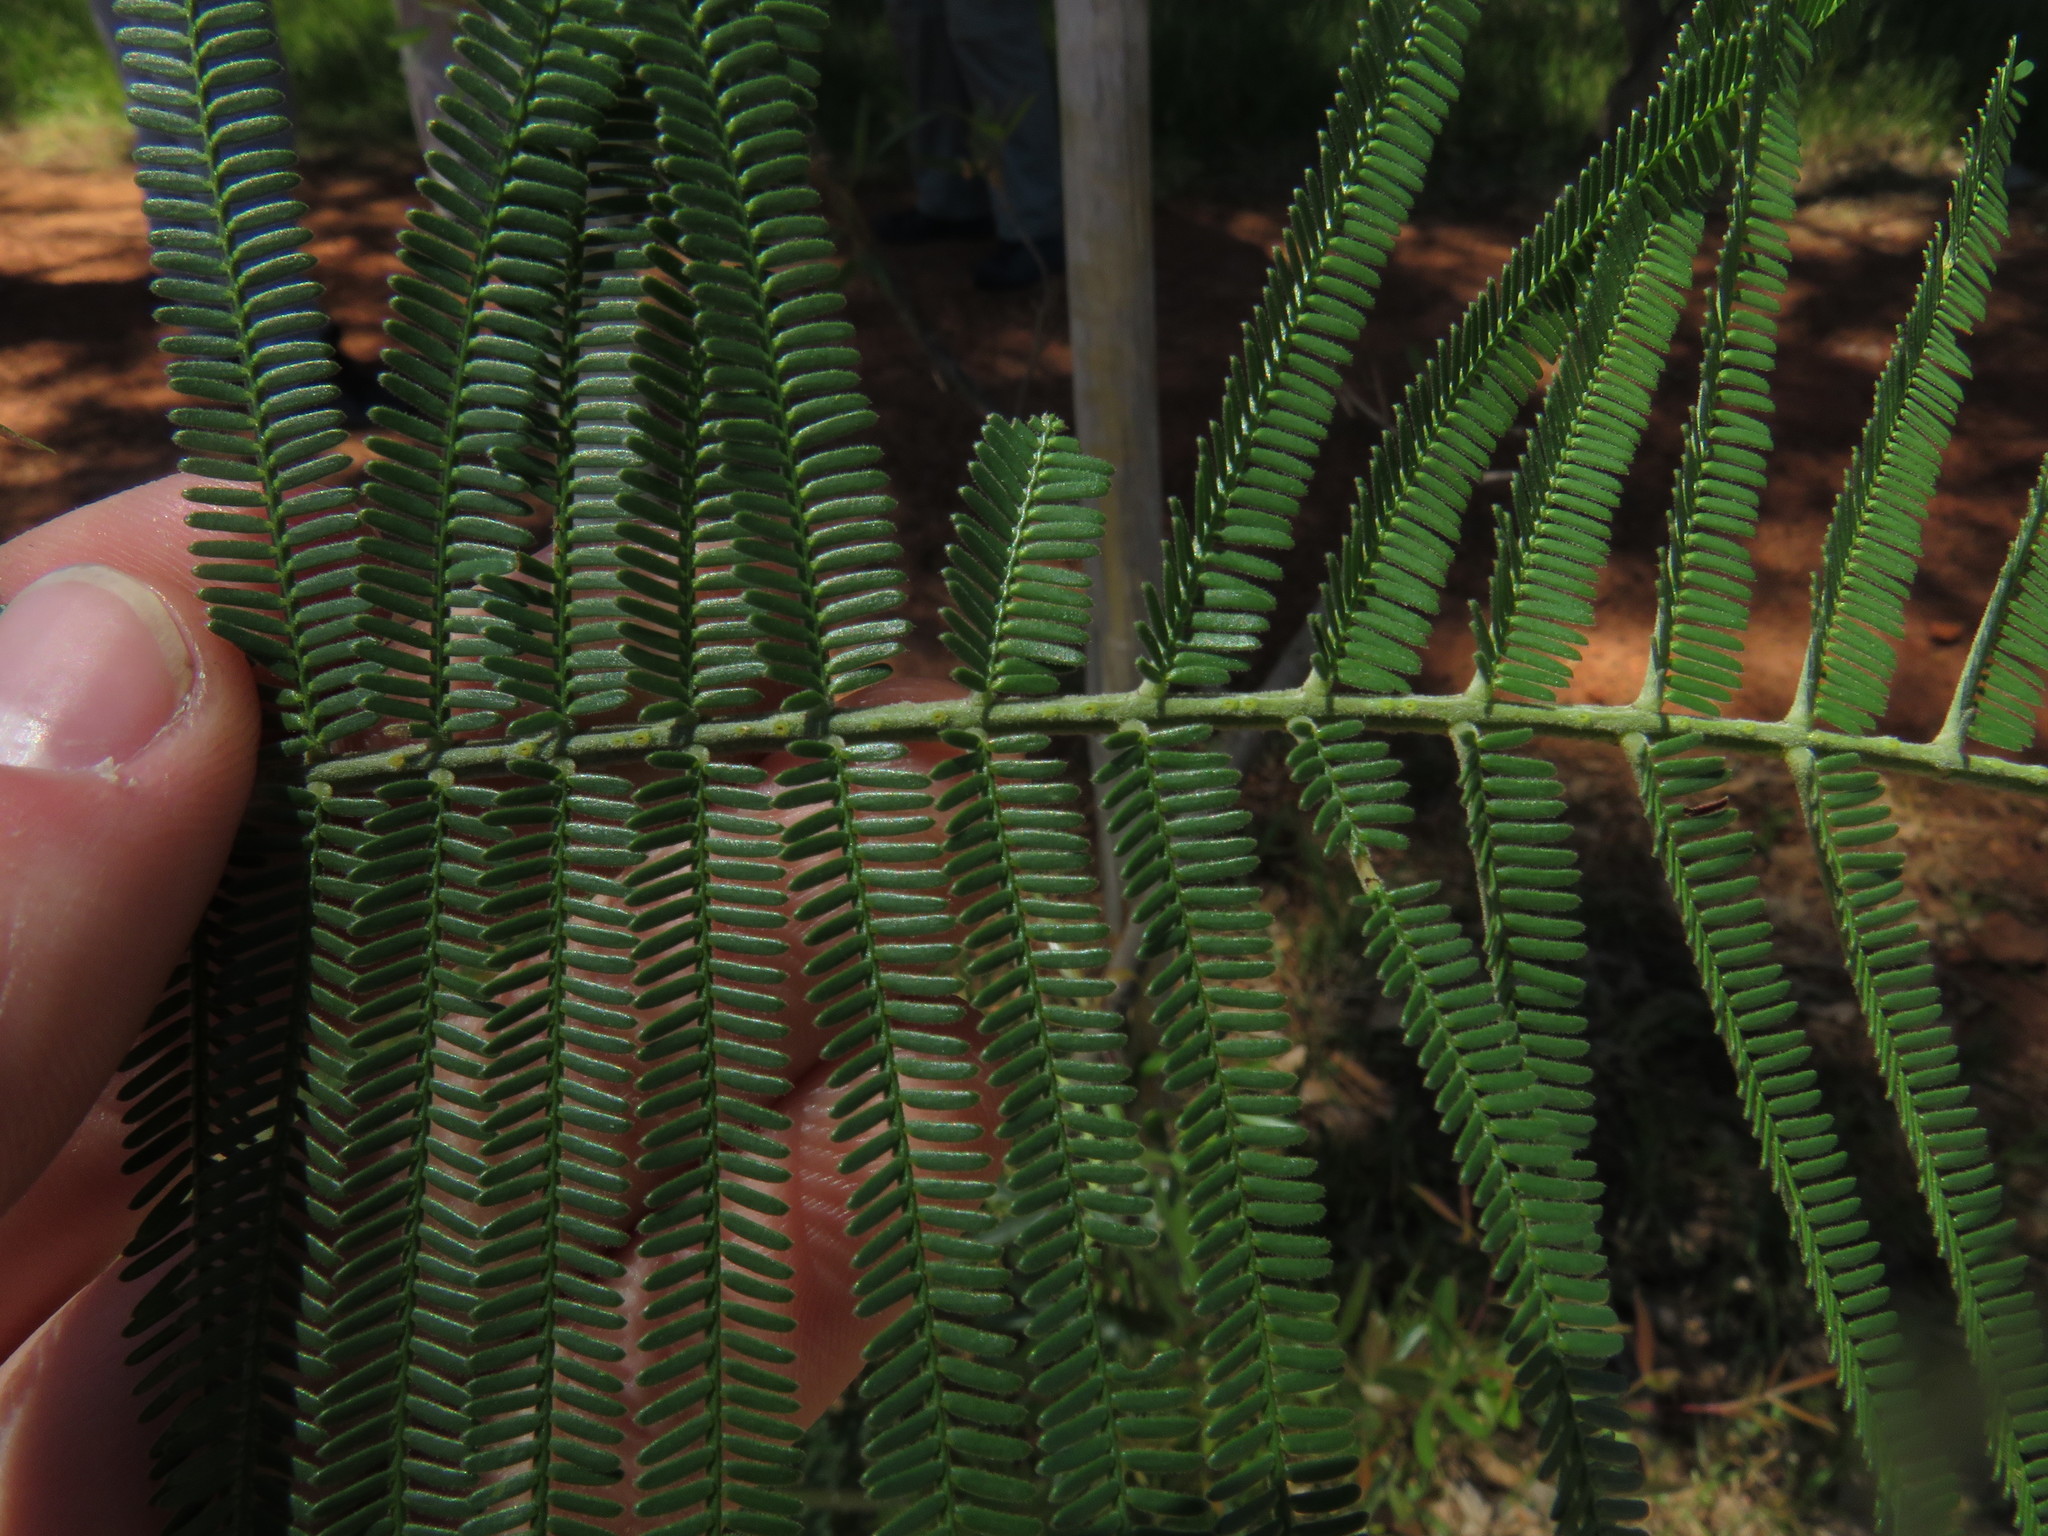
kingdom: Plantae
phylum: Tracheophyta
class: Magnoliopsida
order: Fabales
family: Fabaceae
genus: Acacia
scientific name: Acacia mearnsii
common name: Black wattle
